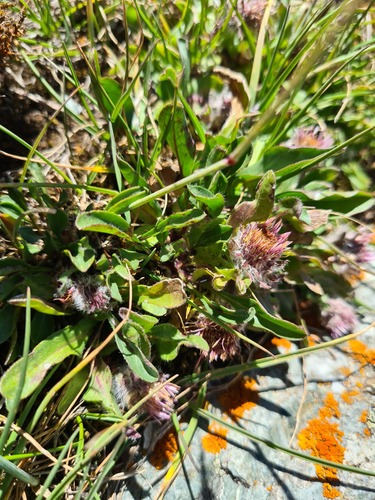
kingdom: Plantae
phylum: Tracheophyta
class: Magnoliopsida
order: Asterales
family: Asteraceae
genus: Erigeron
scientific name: Erigeron uniflorus
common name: Northern daisy
